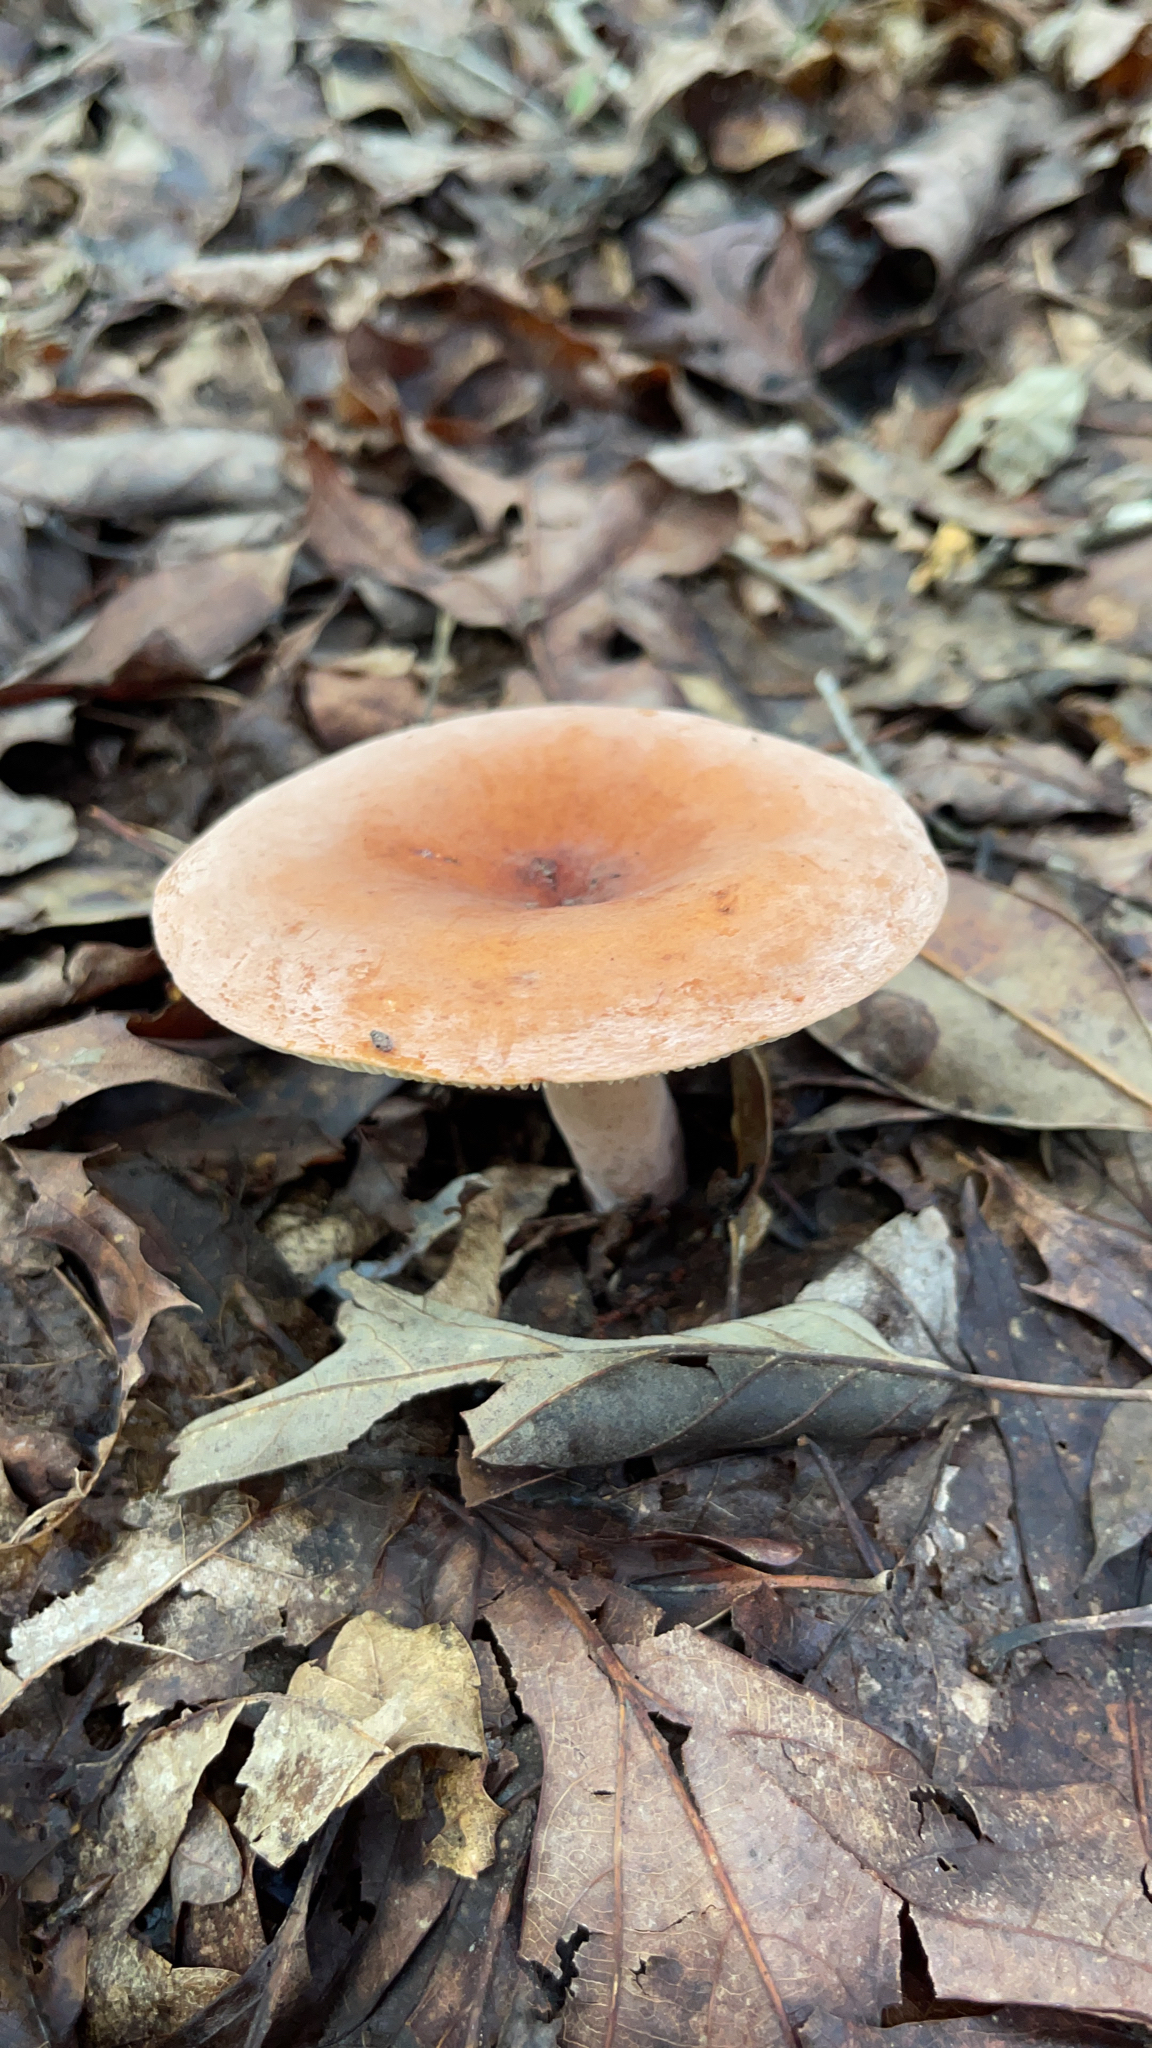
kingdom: Fungi
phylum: Basidiomycota
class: Agaricomycetes
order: Russulales
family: Russulaceae
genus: Lactifluus
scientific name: Lactifluus volemus
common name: Fishy milkcap
